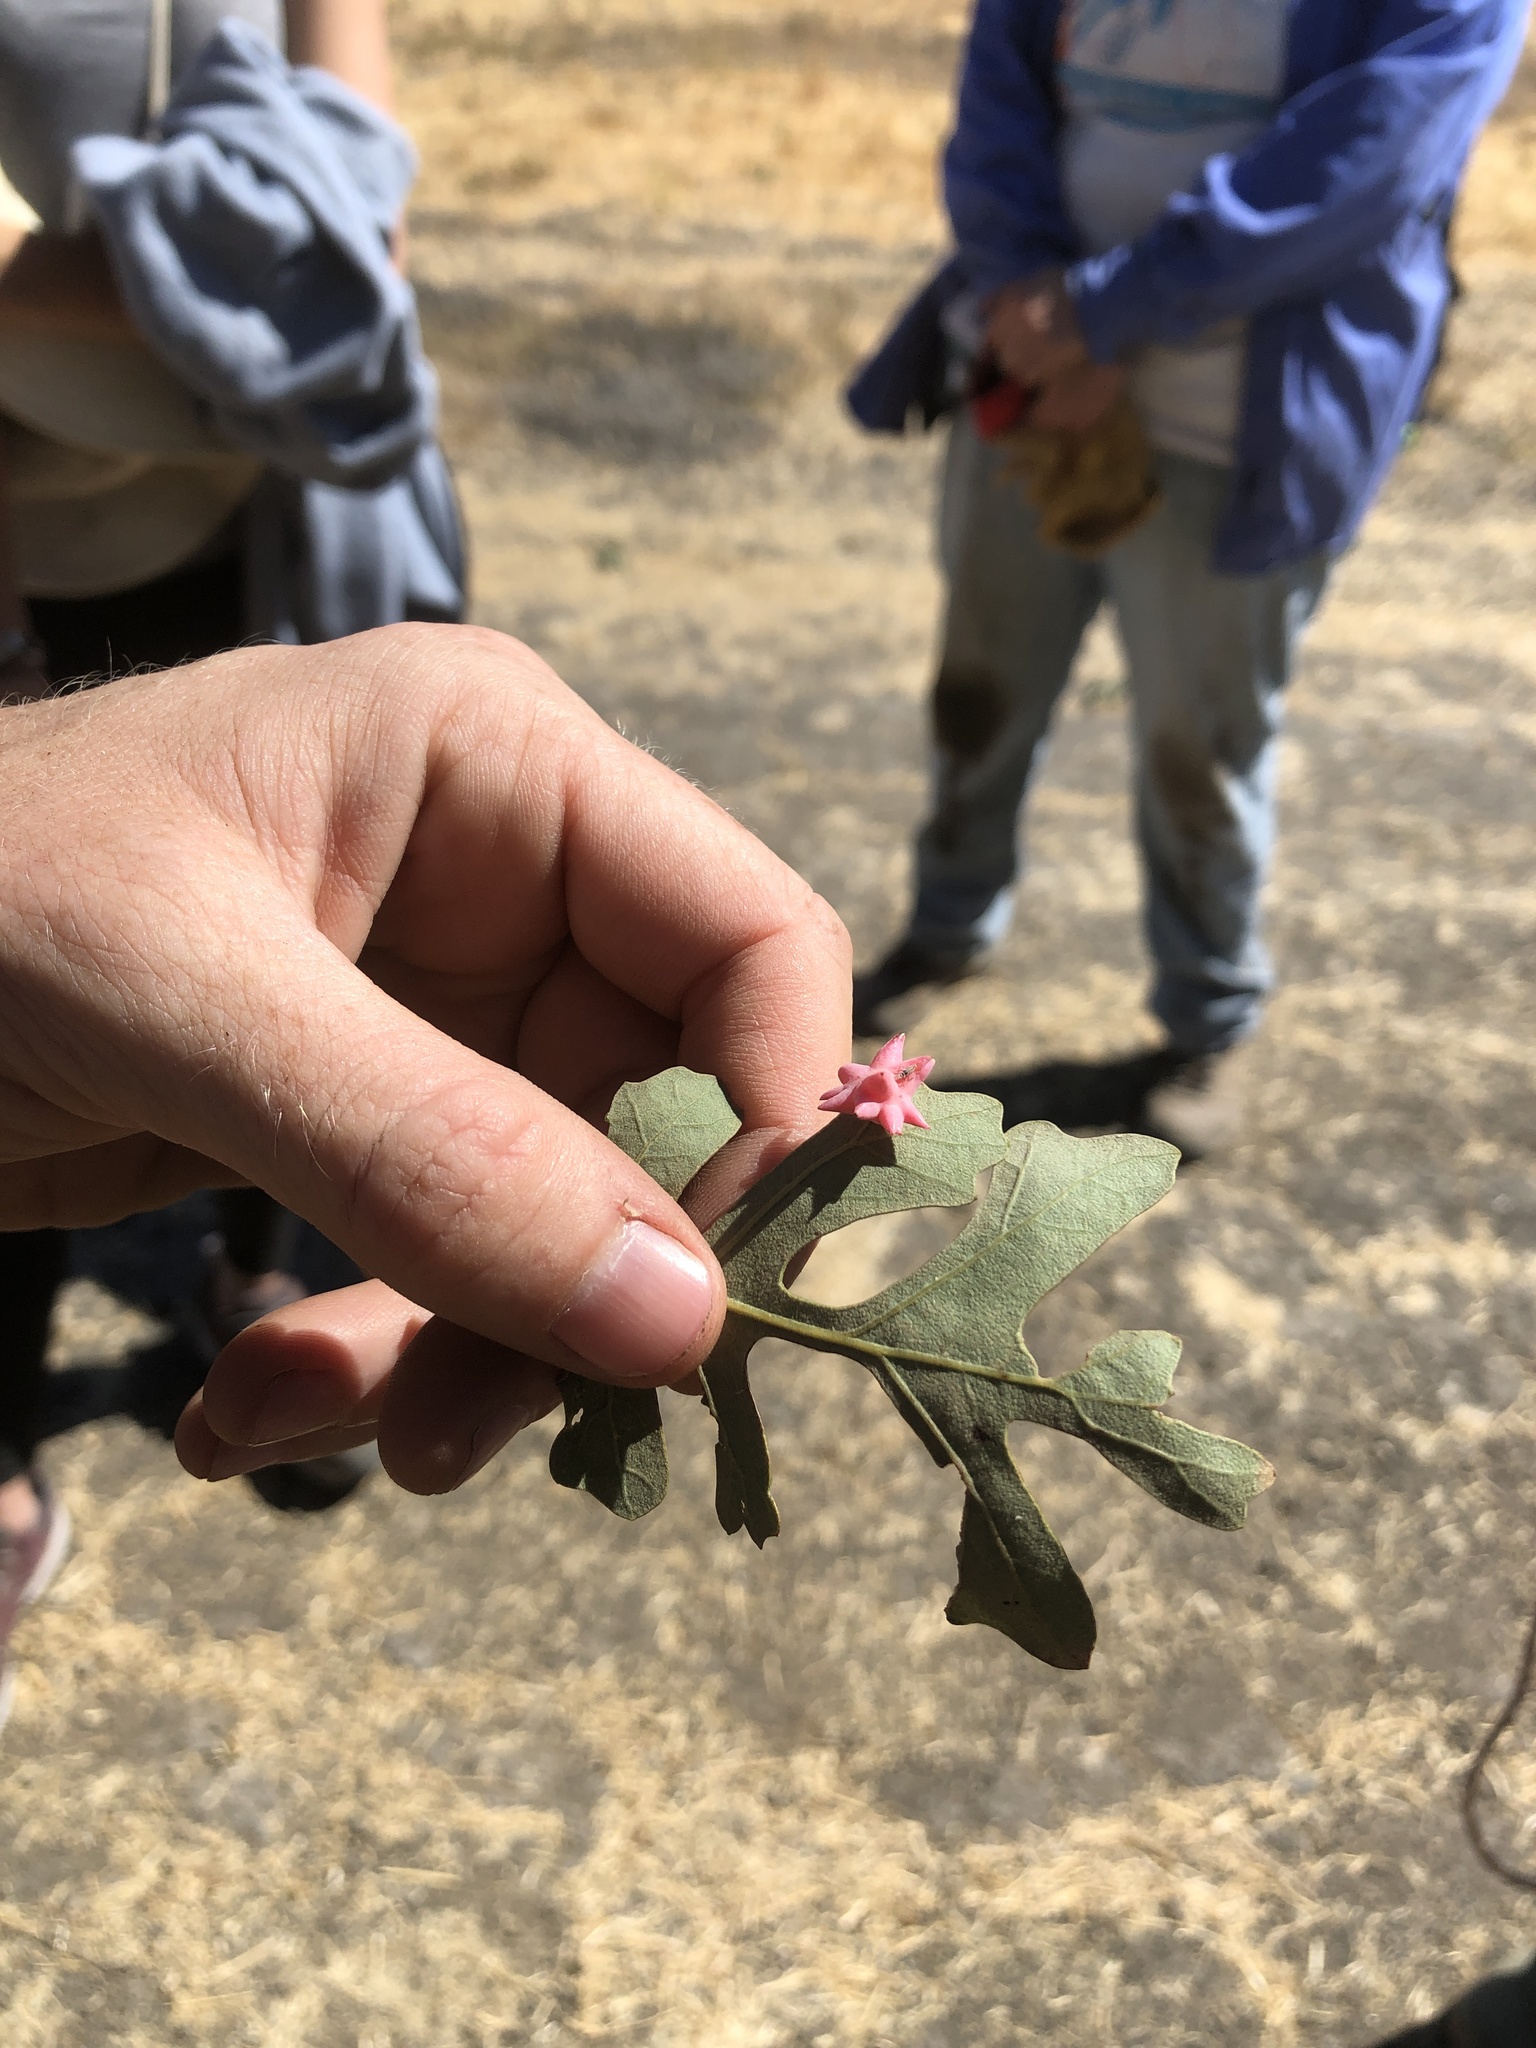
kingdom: Animalia
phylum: Arthropoda
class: Insecta
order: Hymenoptera
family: Cynipidae
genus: Cynips
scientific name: Cynips douglasi
